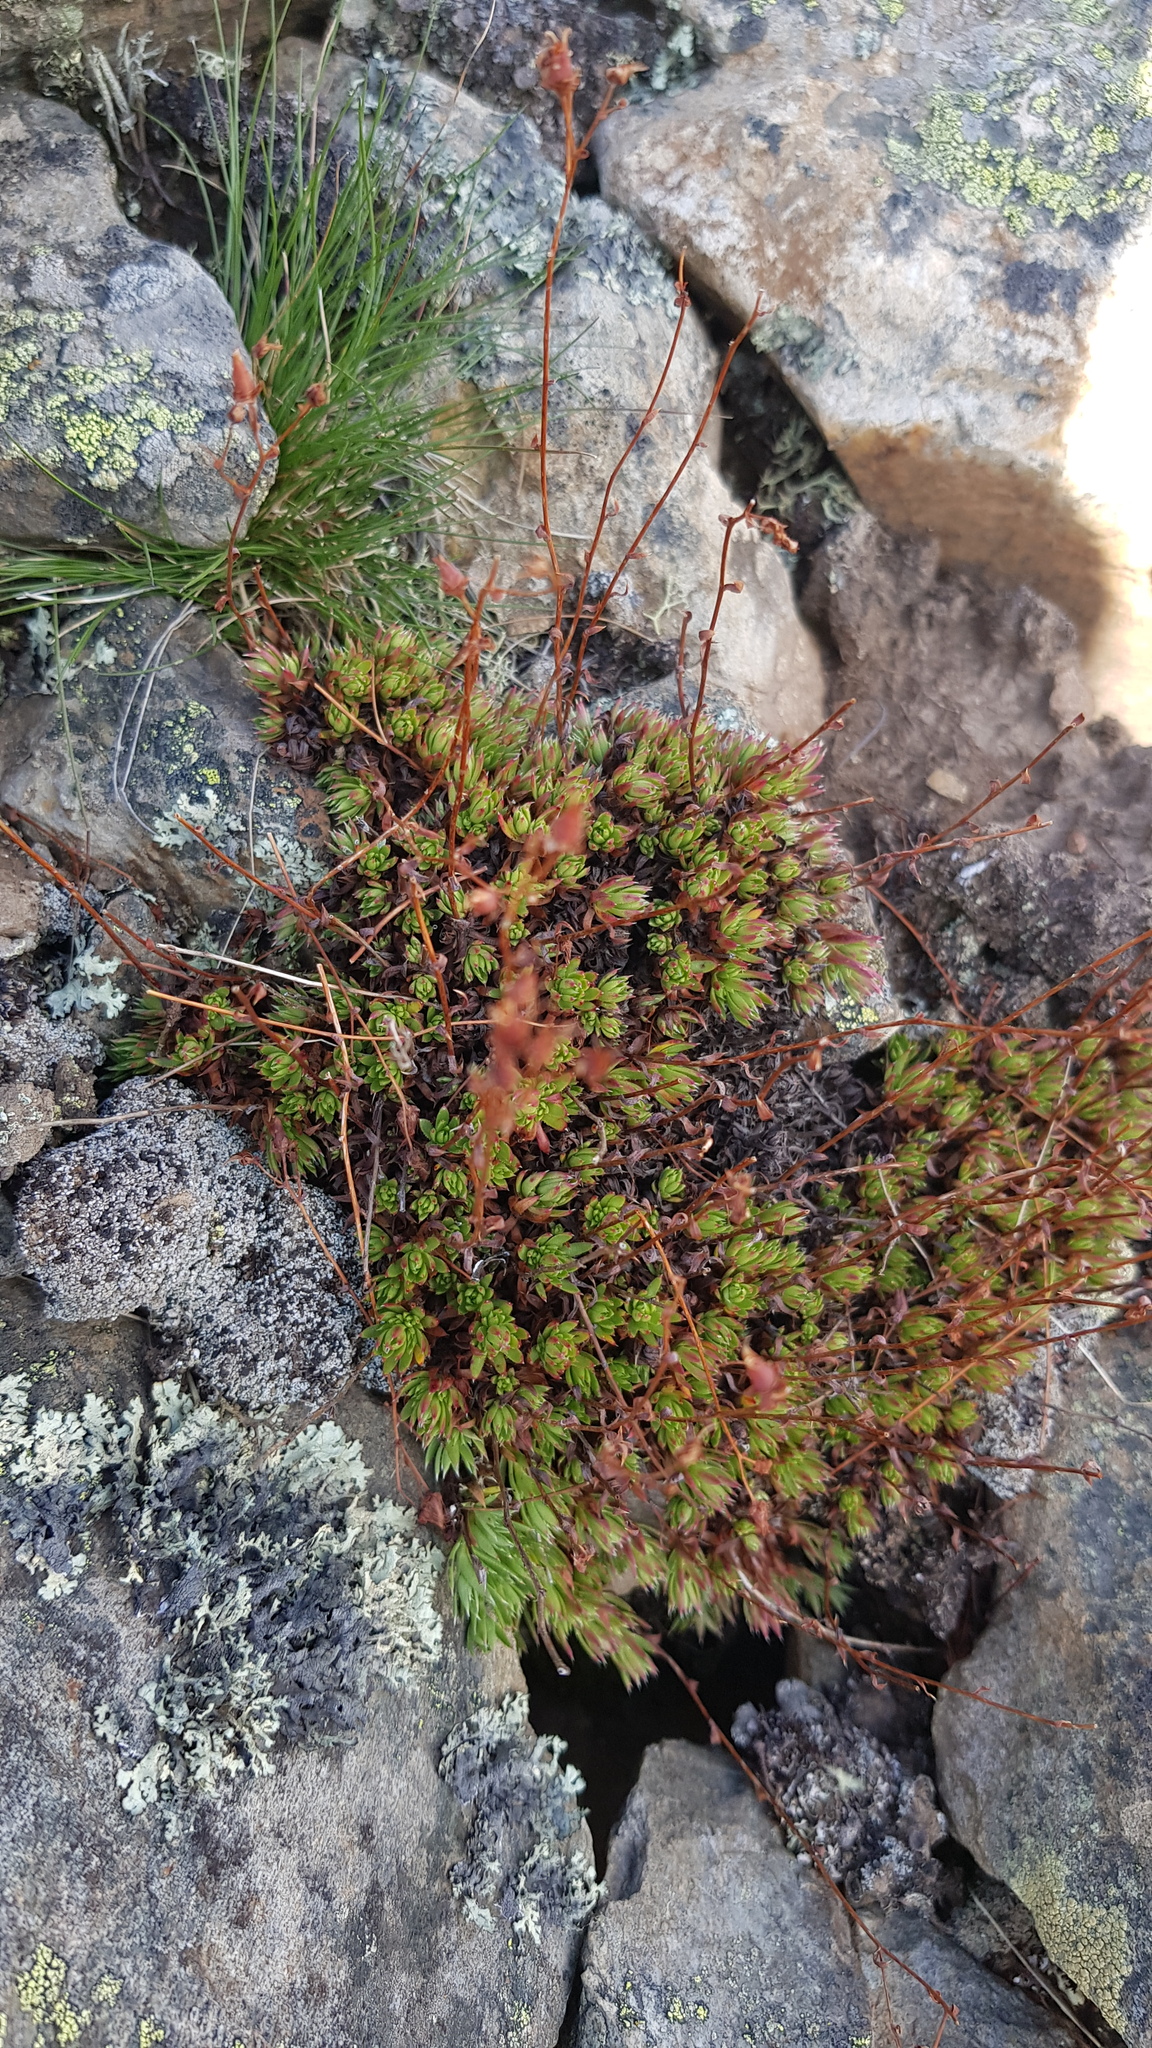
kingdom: Plantae
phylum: Tracheophyta
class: Magnoliopsida
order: Saxifragales
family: Saxifragaceae
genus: Saxifraga
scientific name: Saxifraga
